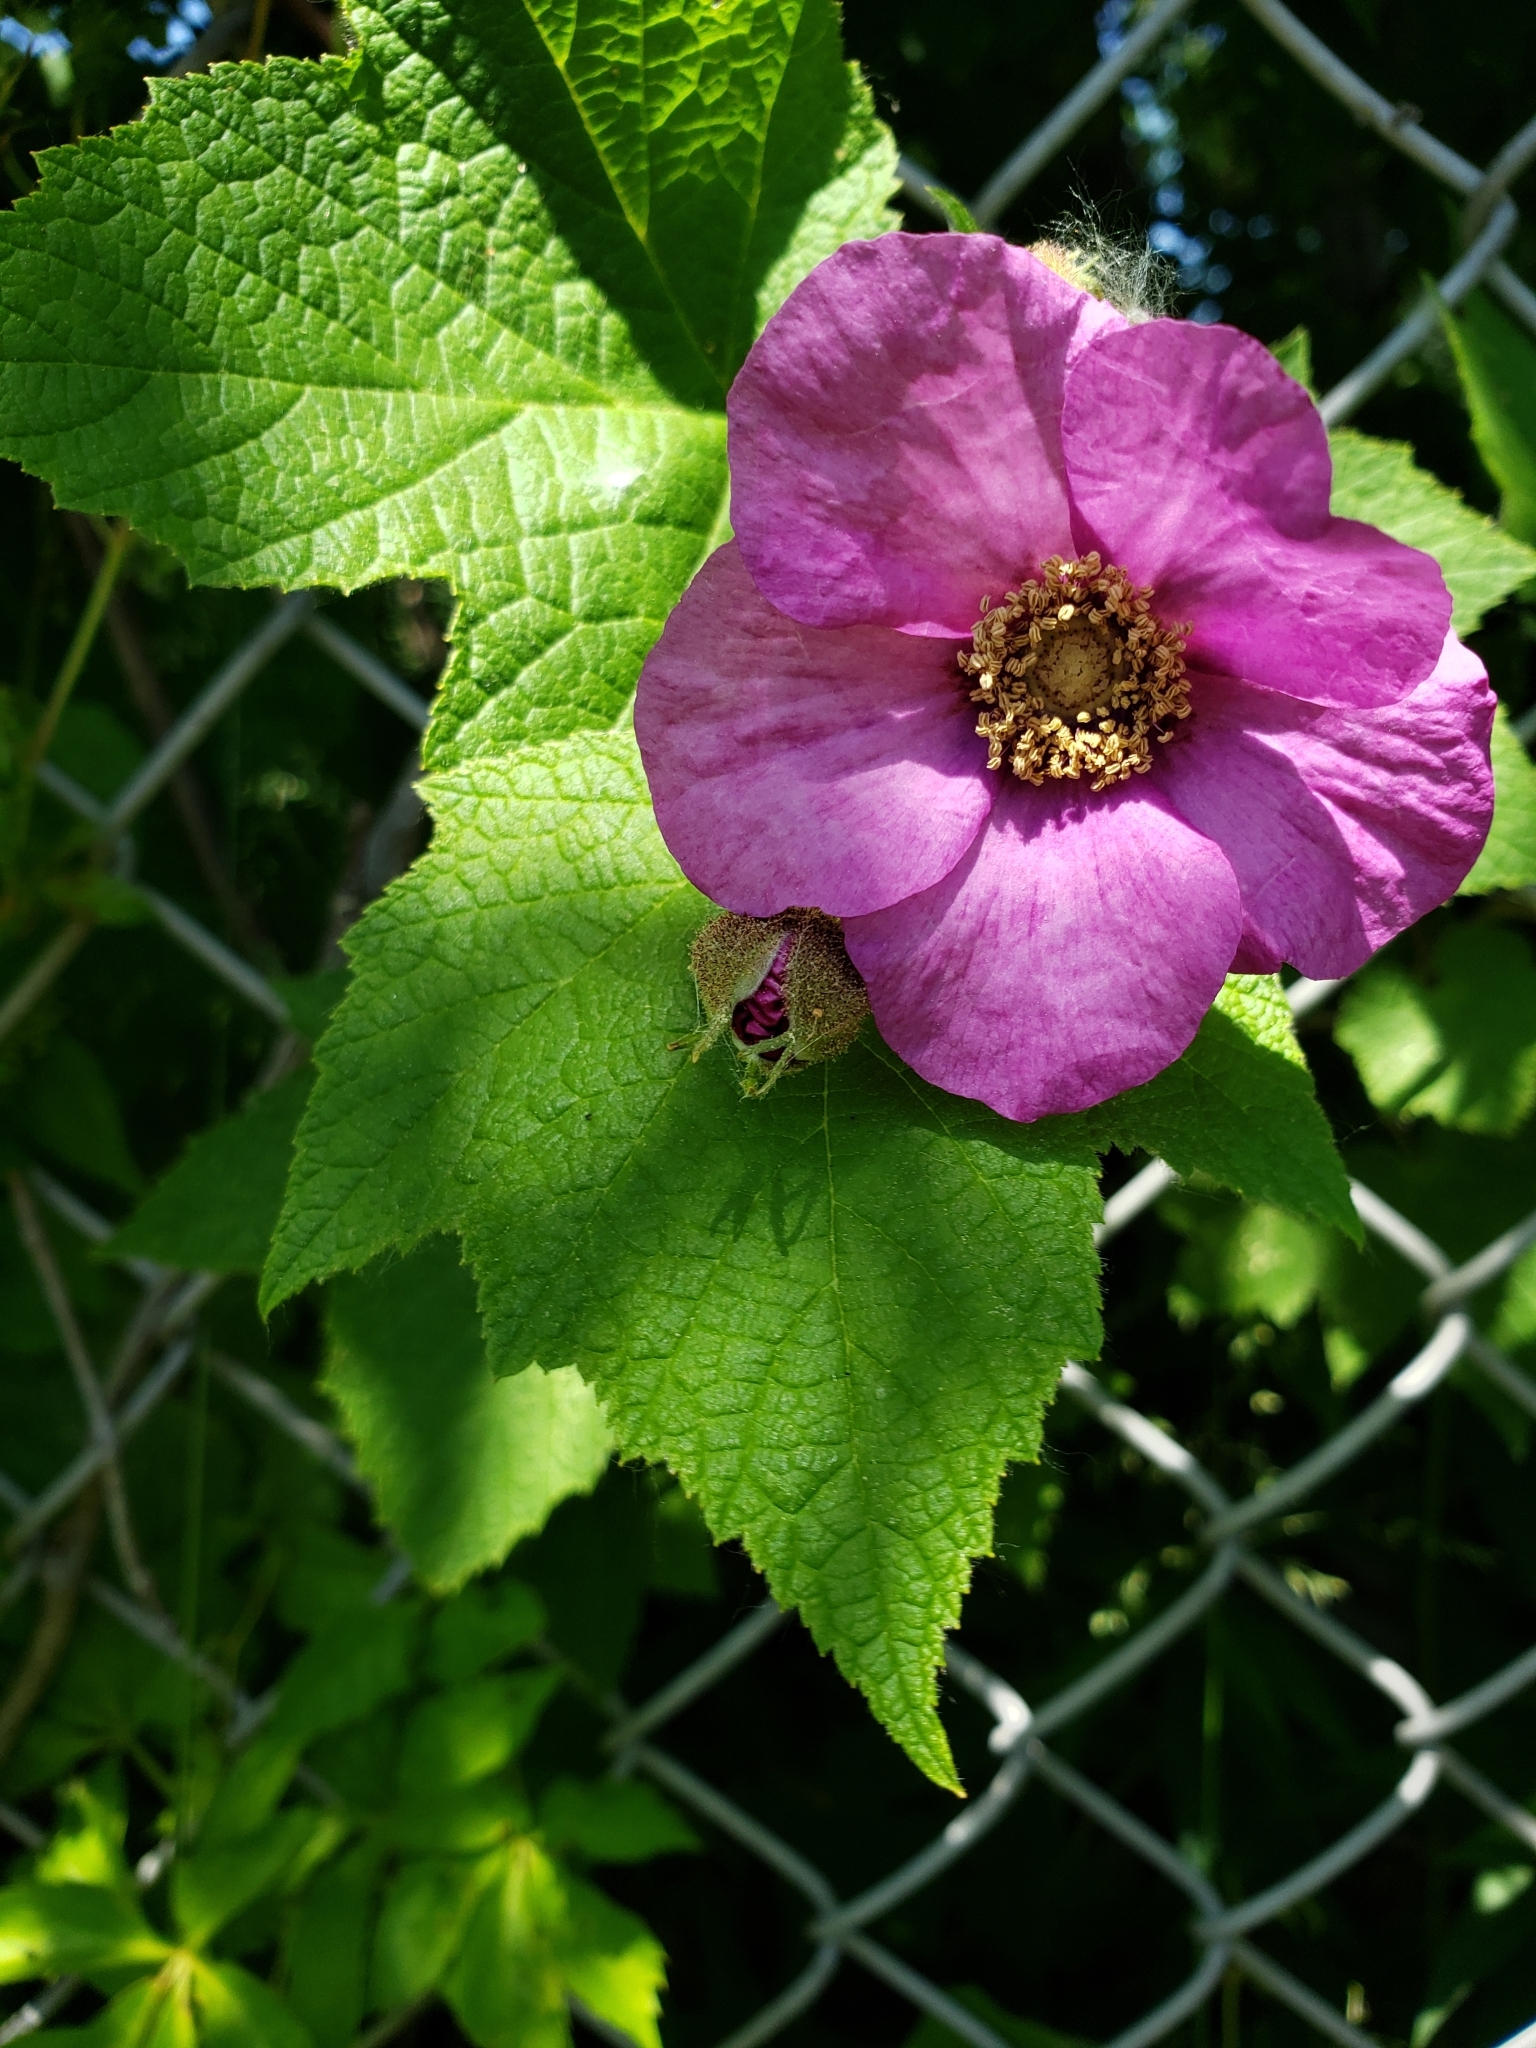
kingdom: Plantae
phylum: Tracheophyta
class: Magnoliopsida
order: Rosales
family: Rosaceae
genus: Rubus
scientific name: Rubus odoratus
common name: Purple-flowered raspberry
